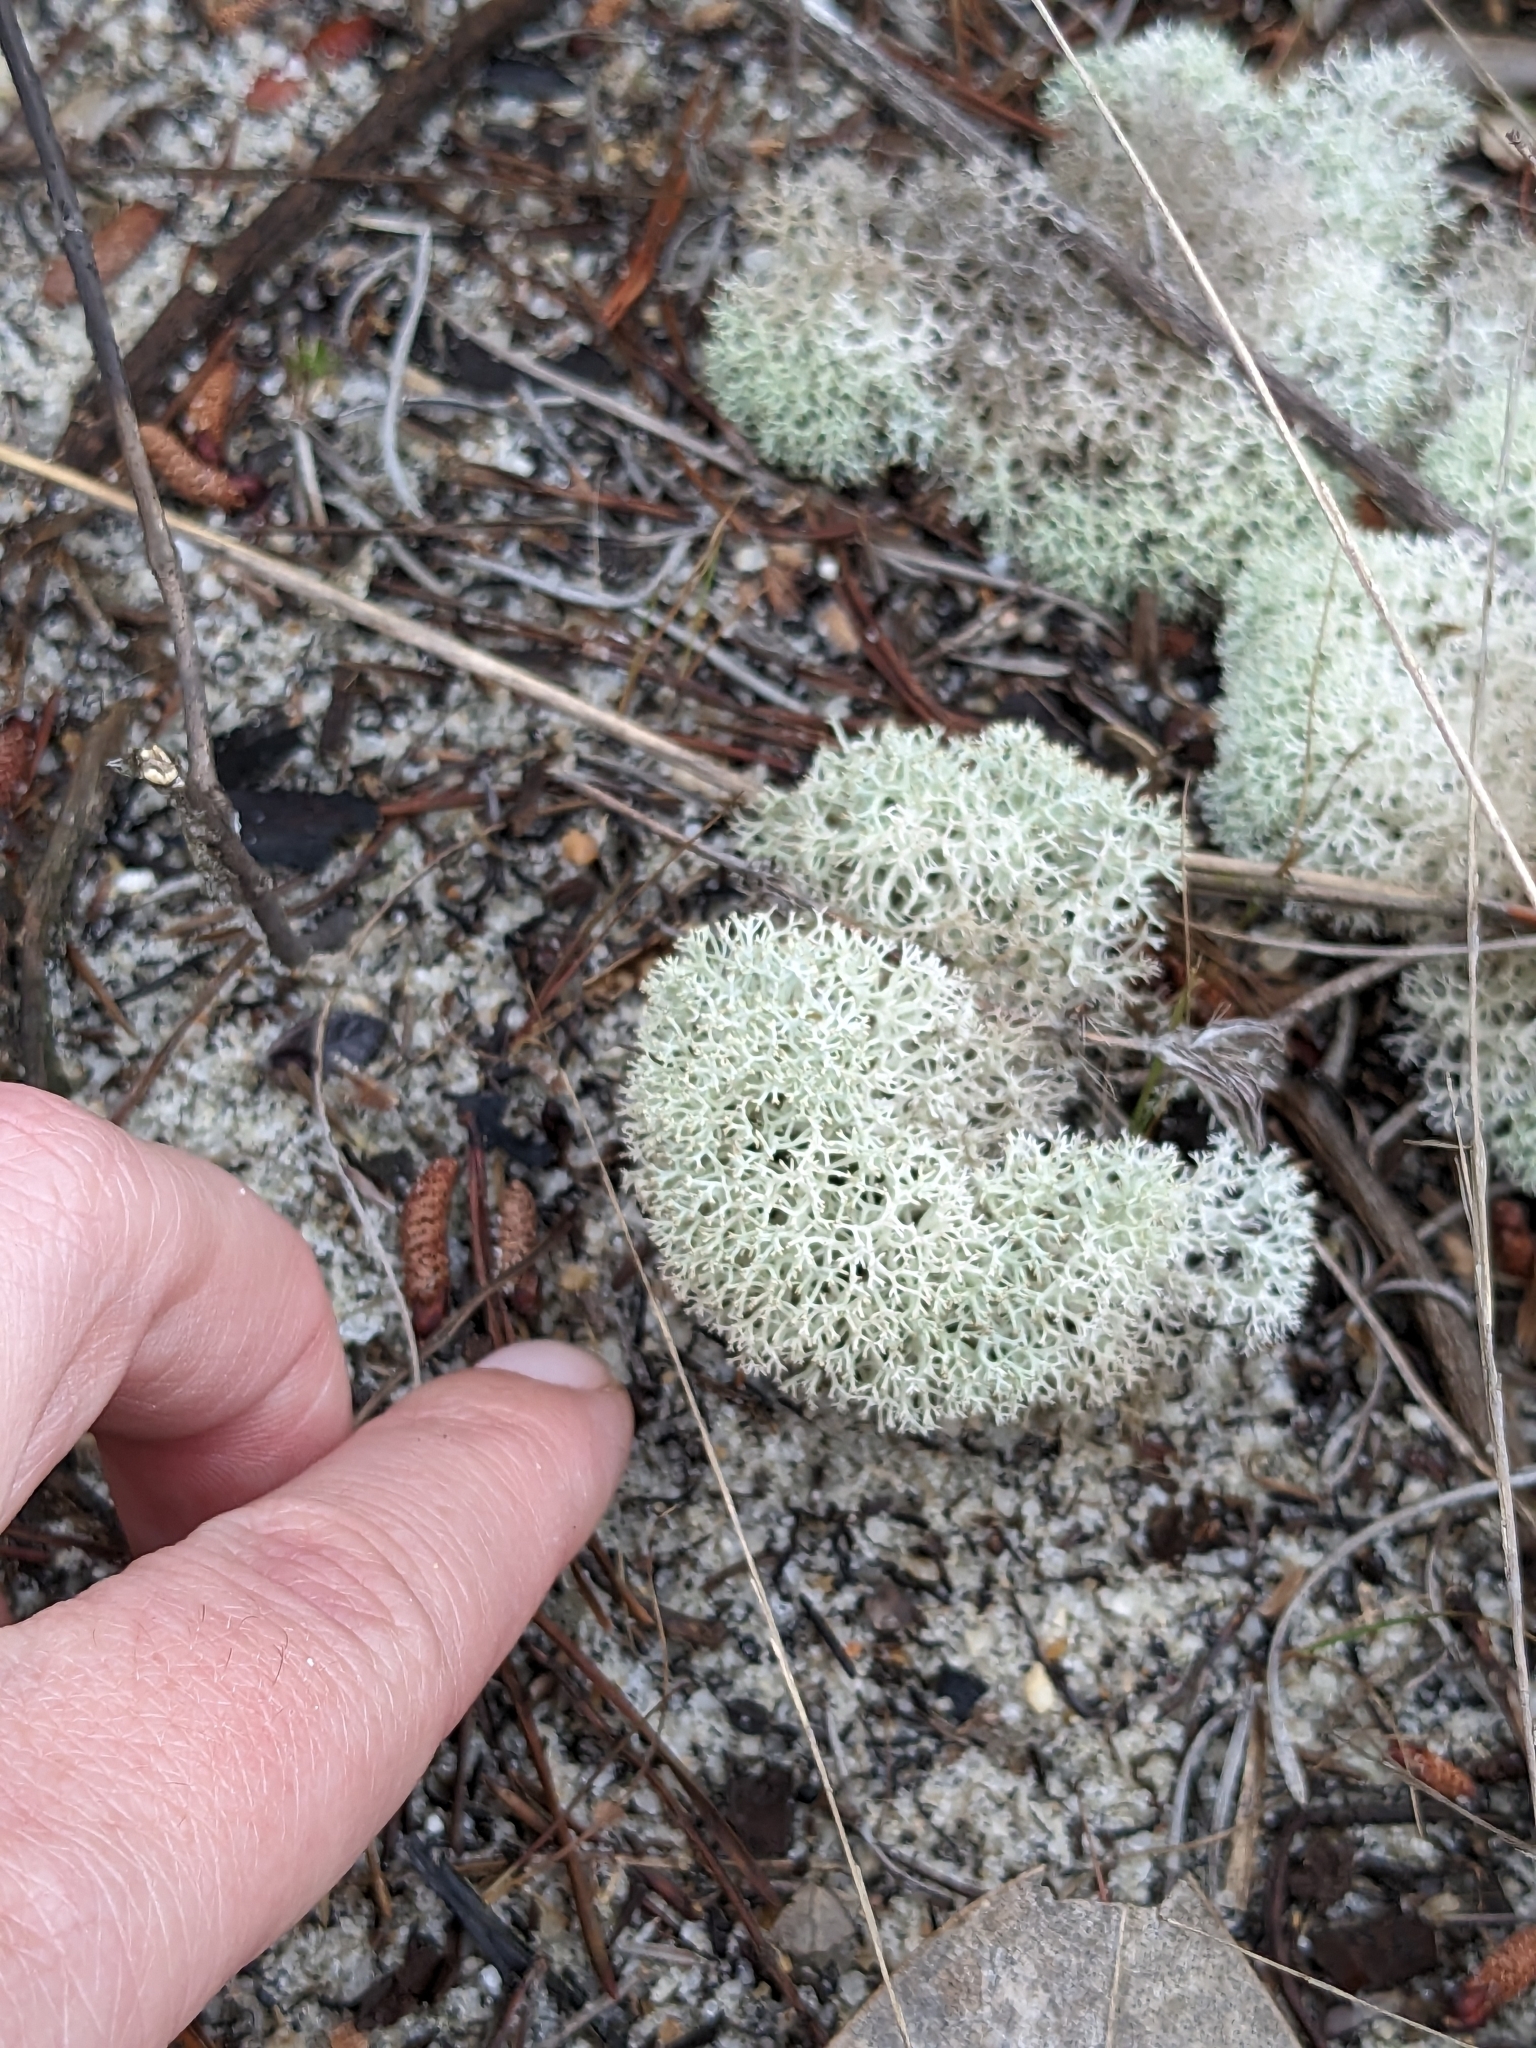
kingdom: Fungi
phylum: Ascomycota
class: Lecanoromycetes
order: Lecanorales
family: Cladoniaceae
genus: Cladonia
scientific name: Cladonia evansii
